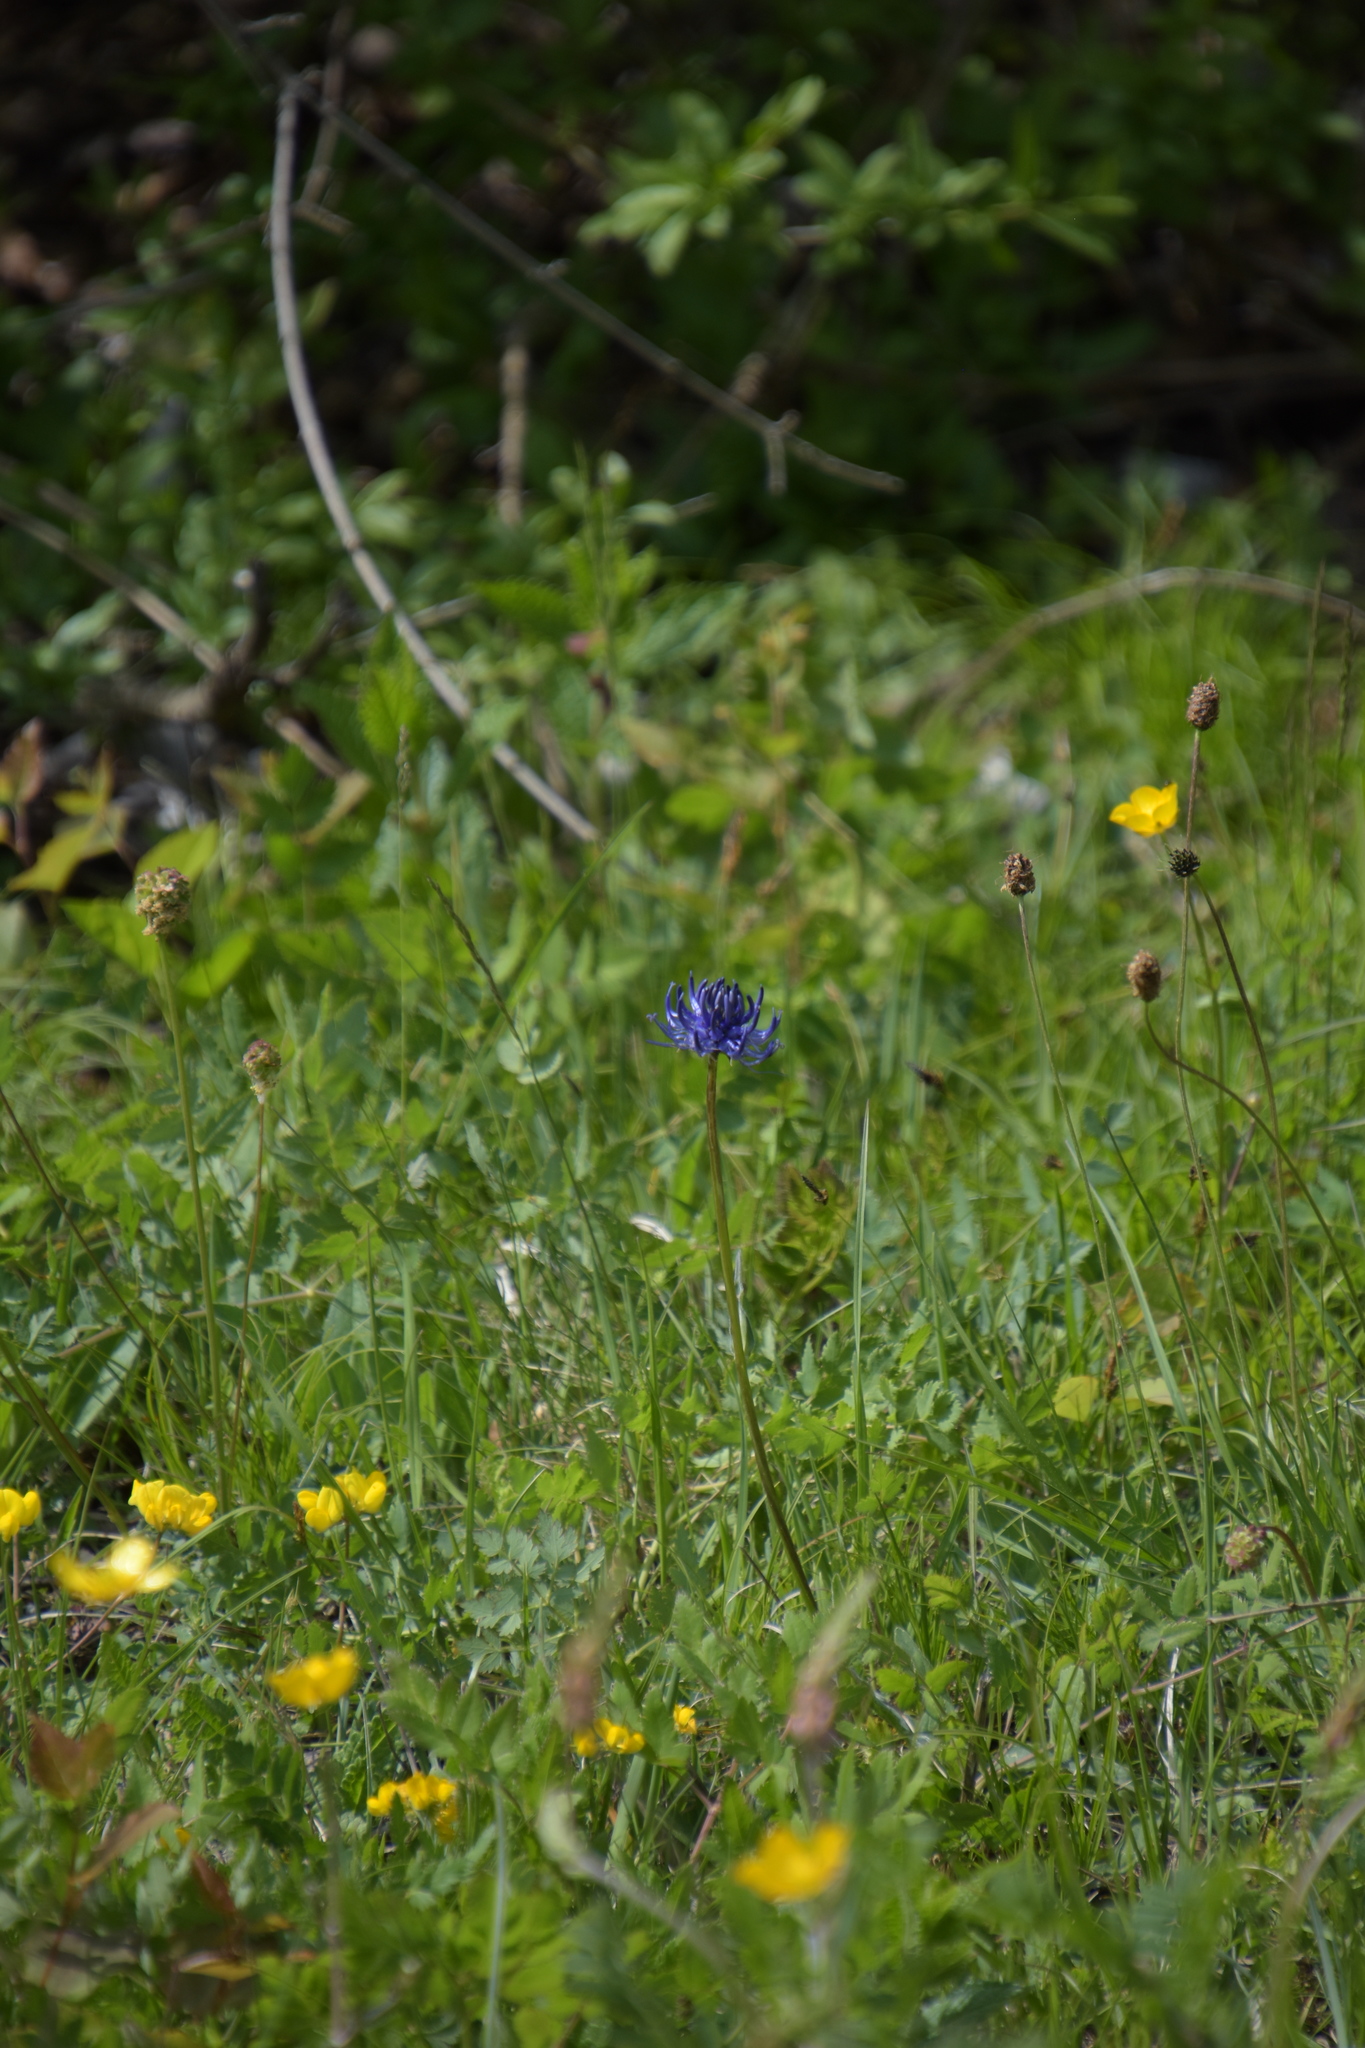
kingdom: Plantae
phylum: Tracheophyta
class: Magnoliopsida
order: Asterales
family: Campanulaceae
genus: Phyteuma
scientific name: Phyteuma orbiculare
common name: Round-headed rampion
